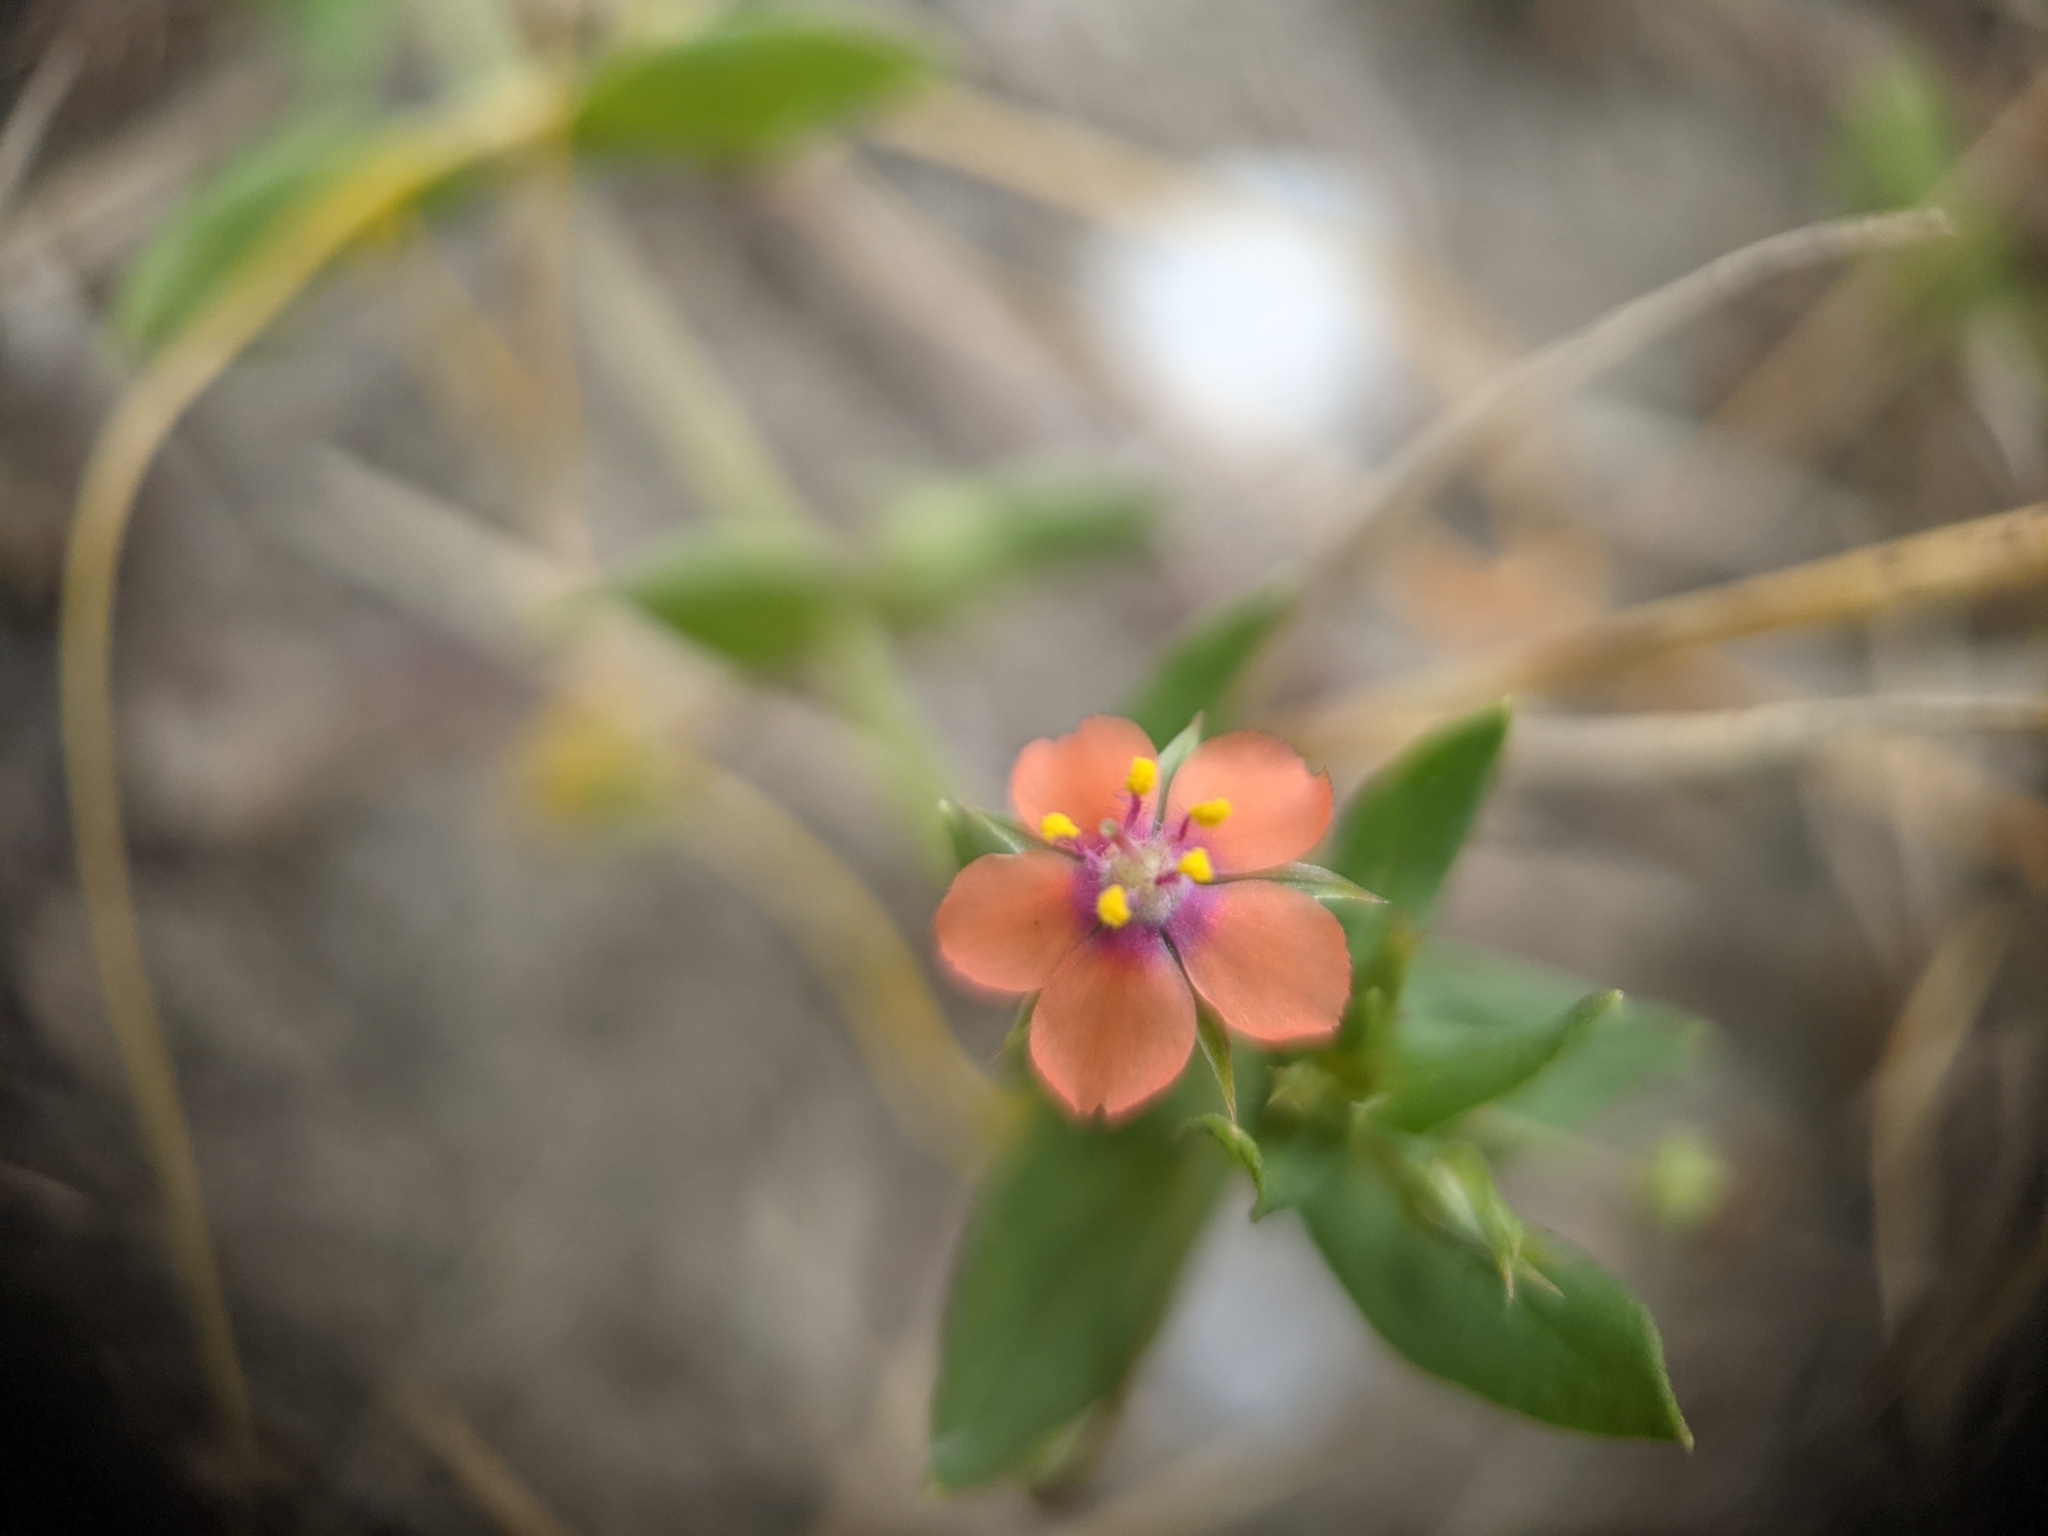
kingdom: Plantae
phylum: Tracheophyta
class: Magnoliopsida
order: Ericales
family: Primulaceae
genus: Lysimachia
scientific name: Lysimachia arvensis
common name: Scarlet pimpernel
